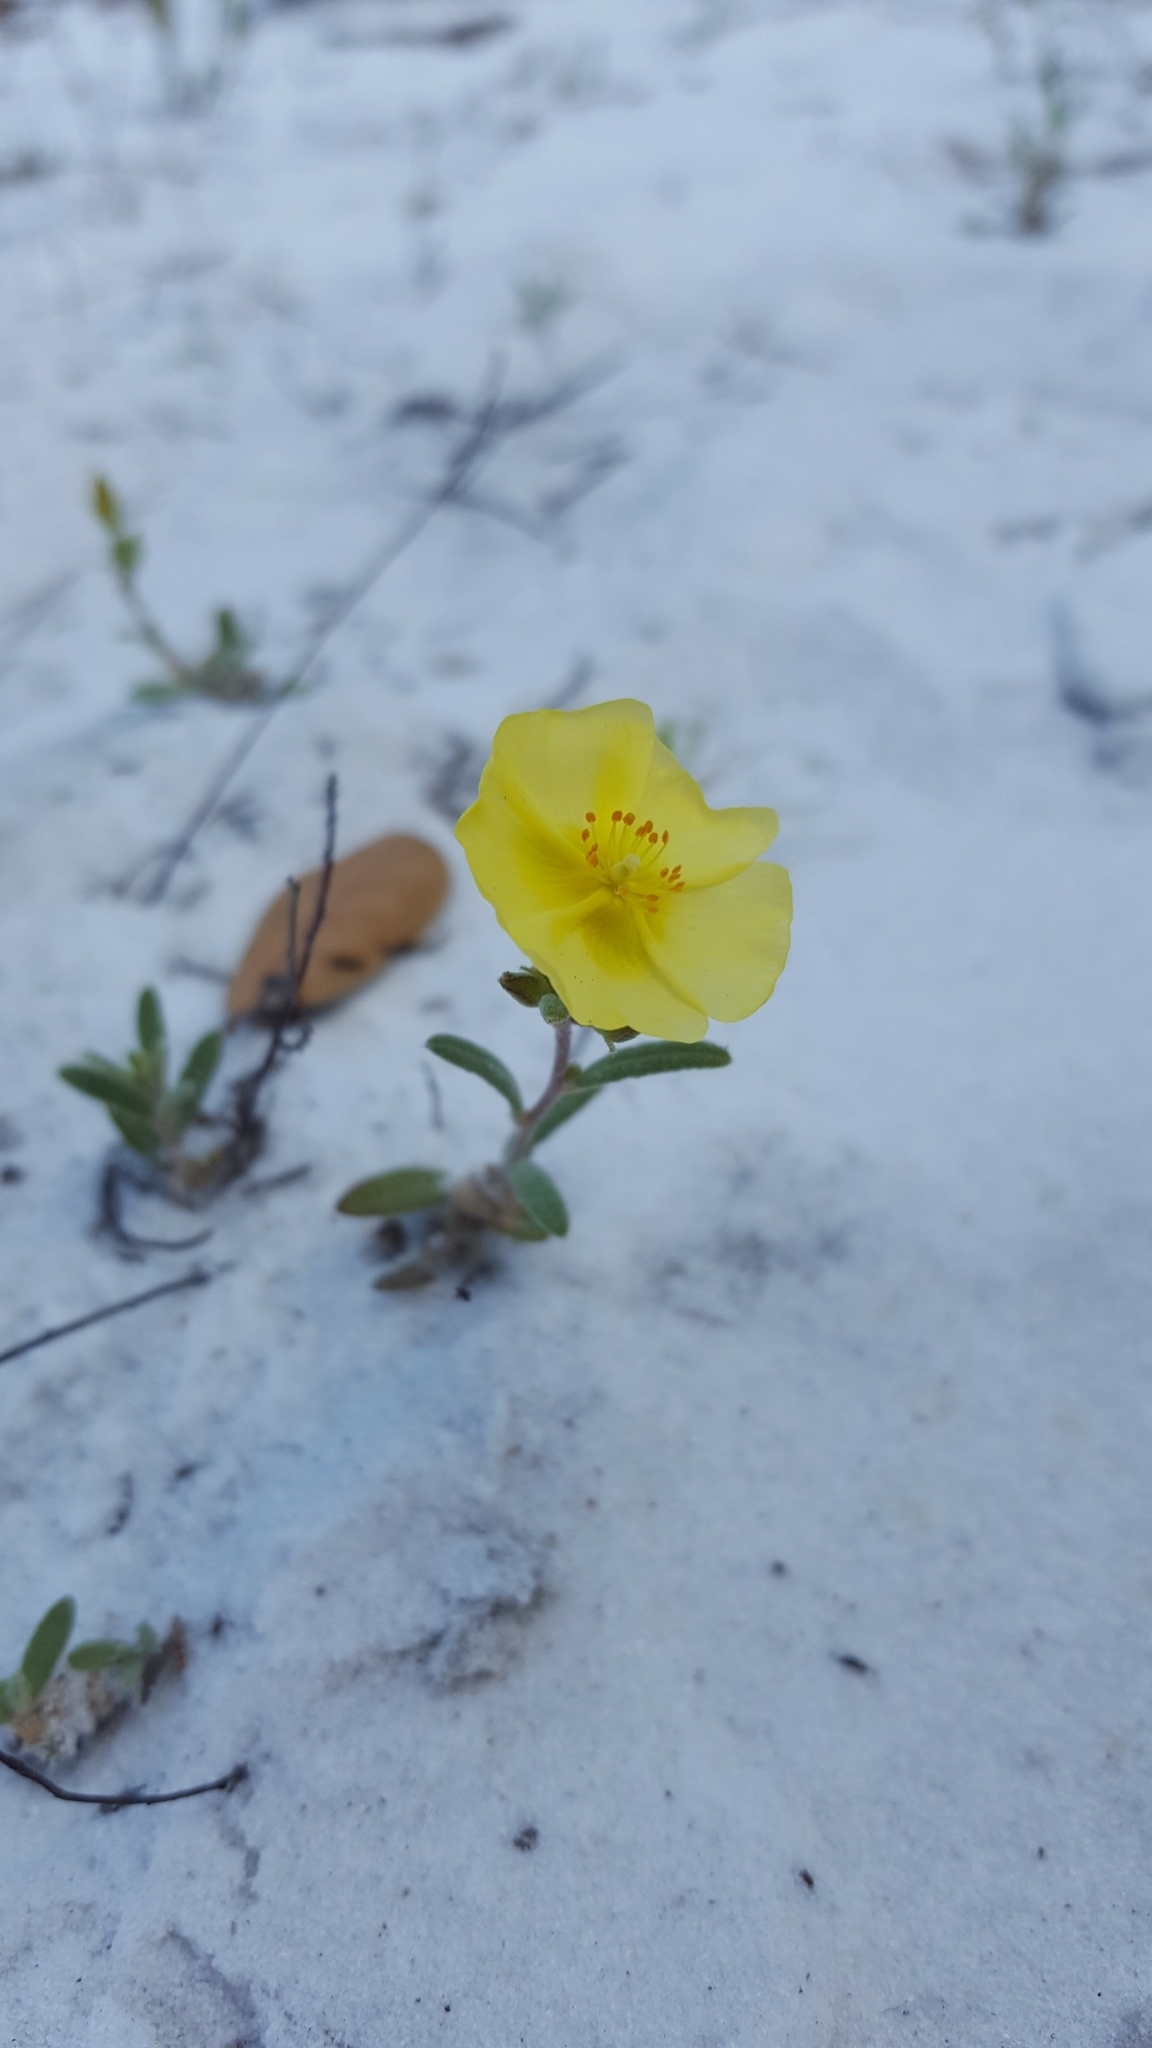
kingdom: Plantae
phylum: Tracheophyta
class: Magnoliopsida
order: Malvales
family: Cistaceae
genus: Crocanthemum
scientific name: Crocanthemum corymbosum
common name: Pinebarren sun-rose
